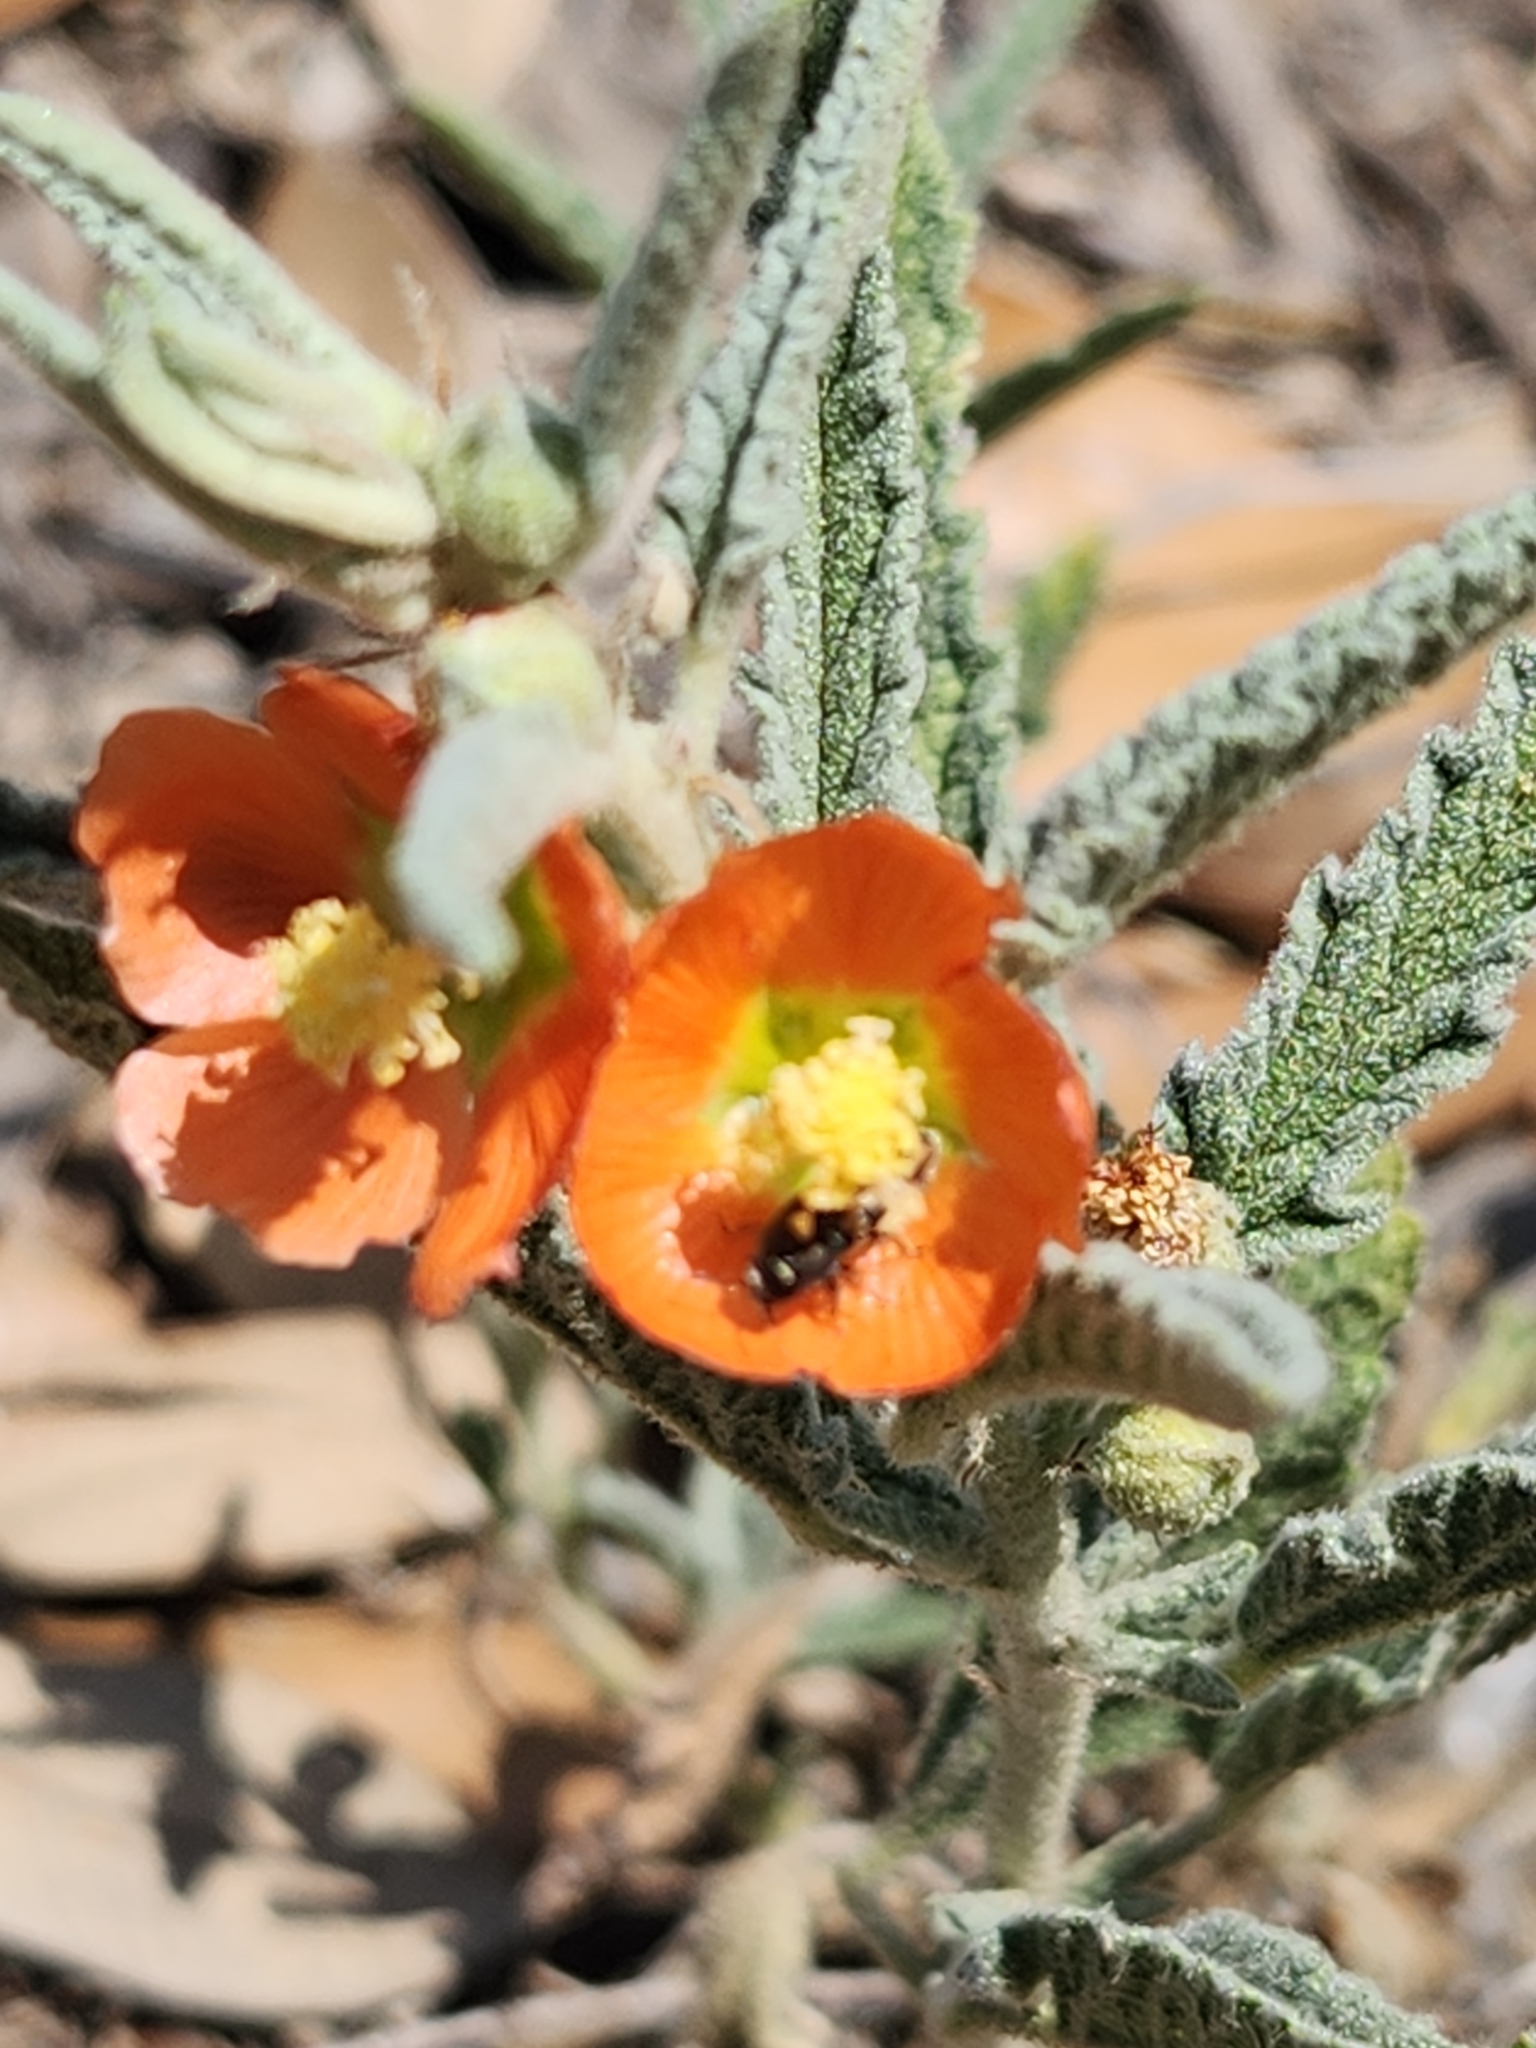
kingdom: Plantae
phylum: Tracheophyta
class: Magnoliopsida
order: Malvales
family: Malvaceae
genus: Sphaeralcea
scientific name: Sphaeralcea angustifolia
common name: Copper globe-mallow
